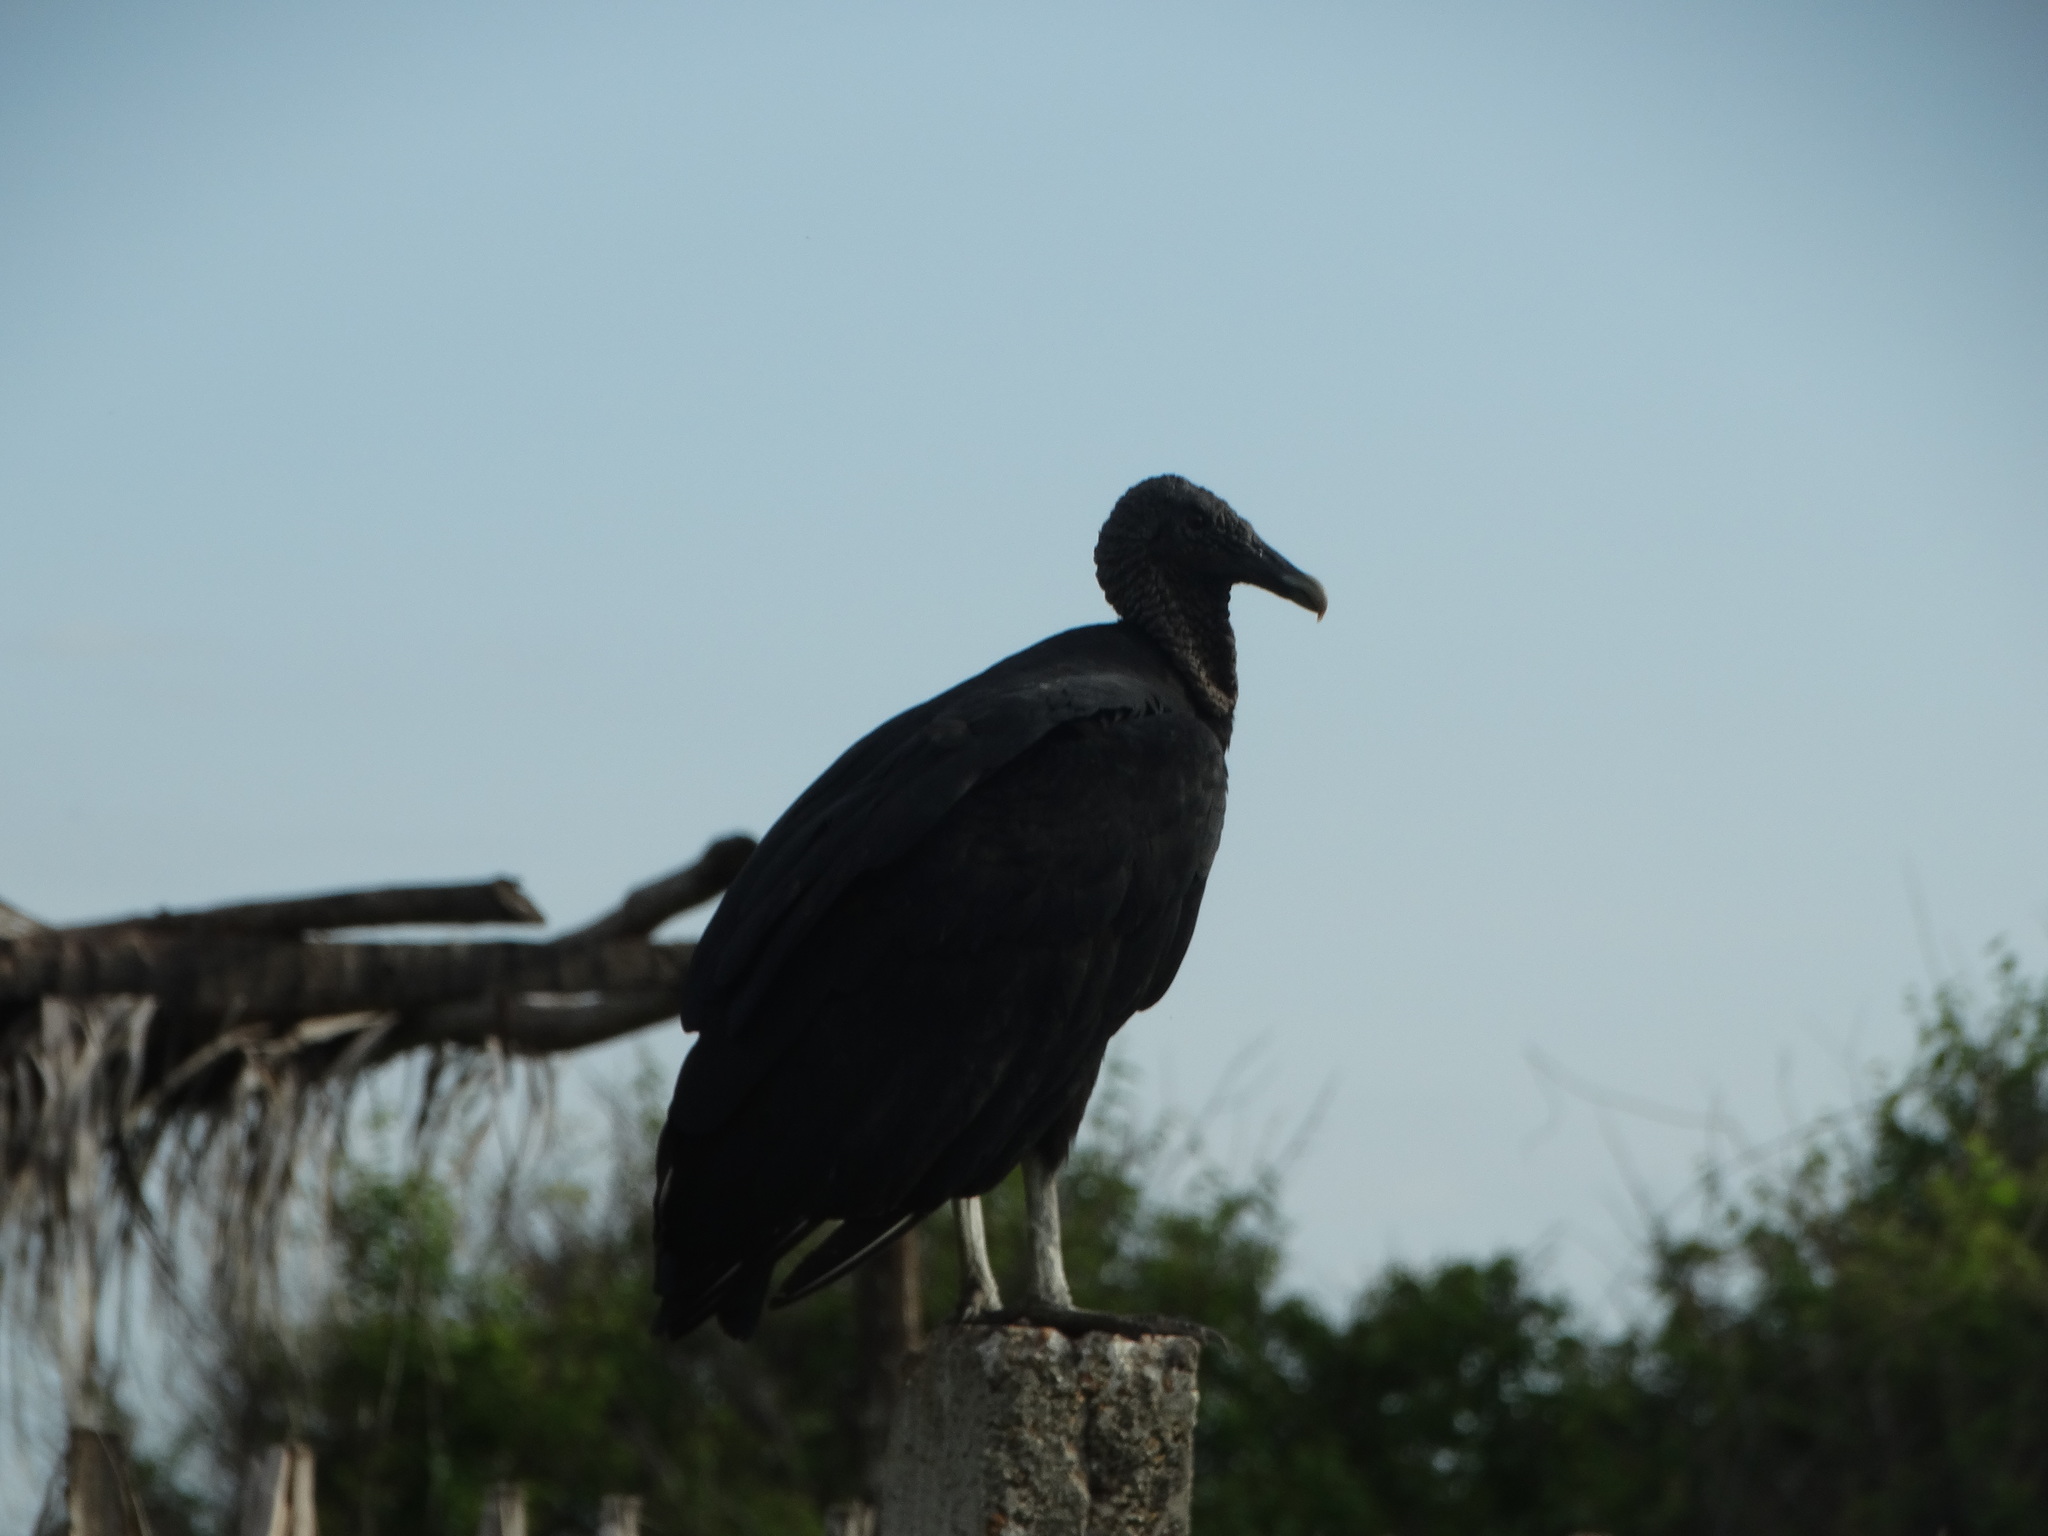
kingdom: Animalia
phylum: Chordata
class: Aves
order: Accipitriformes
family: Cathartidae
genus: Coragyps
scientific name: Coragyps atratus
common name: Black vulture
